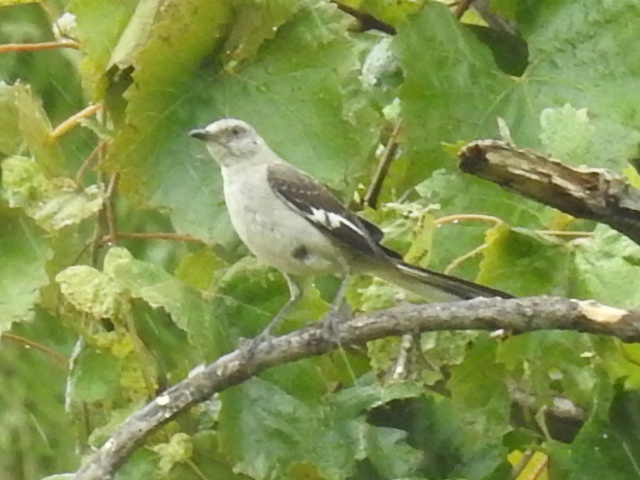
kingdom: Animalia
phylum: Chordata
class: Aves
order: Passeriformes
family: Mimidae
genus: Mimus
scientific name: Mimus polyglottos
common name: Northern mockingbird
